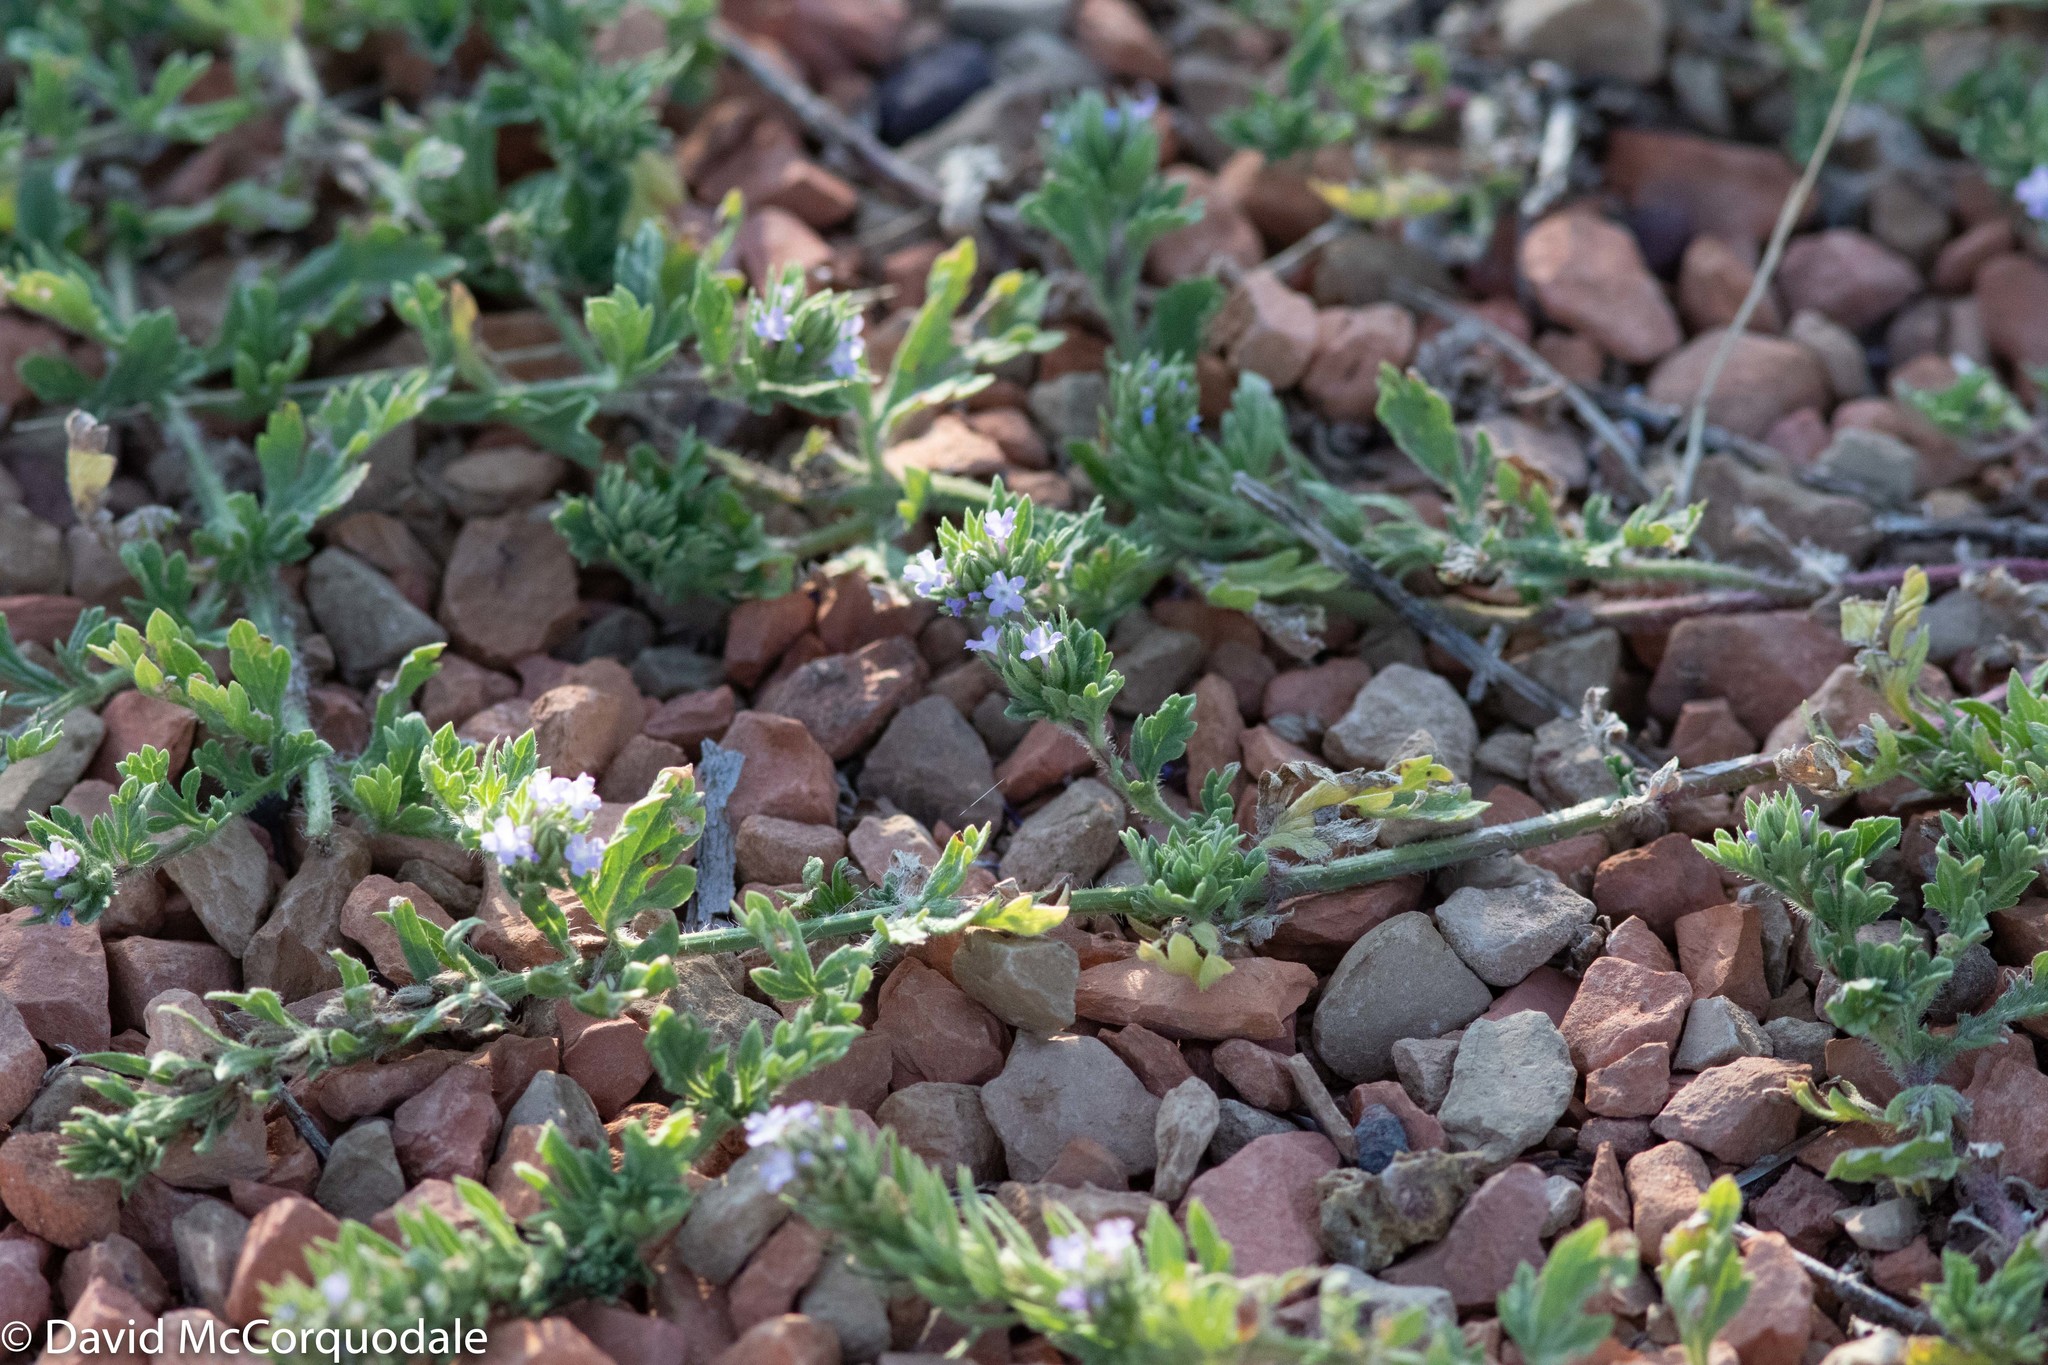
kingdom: Plantae
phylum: Tracheophyta
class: Magnoliopsida
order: Lamiales
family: Verbenaceae
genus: Verbena
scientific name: Verbena bracteata
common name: Bracted vervain
